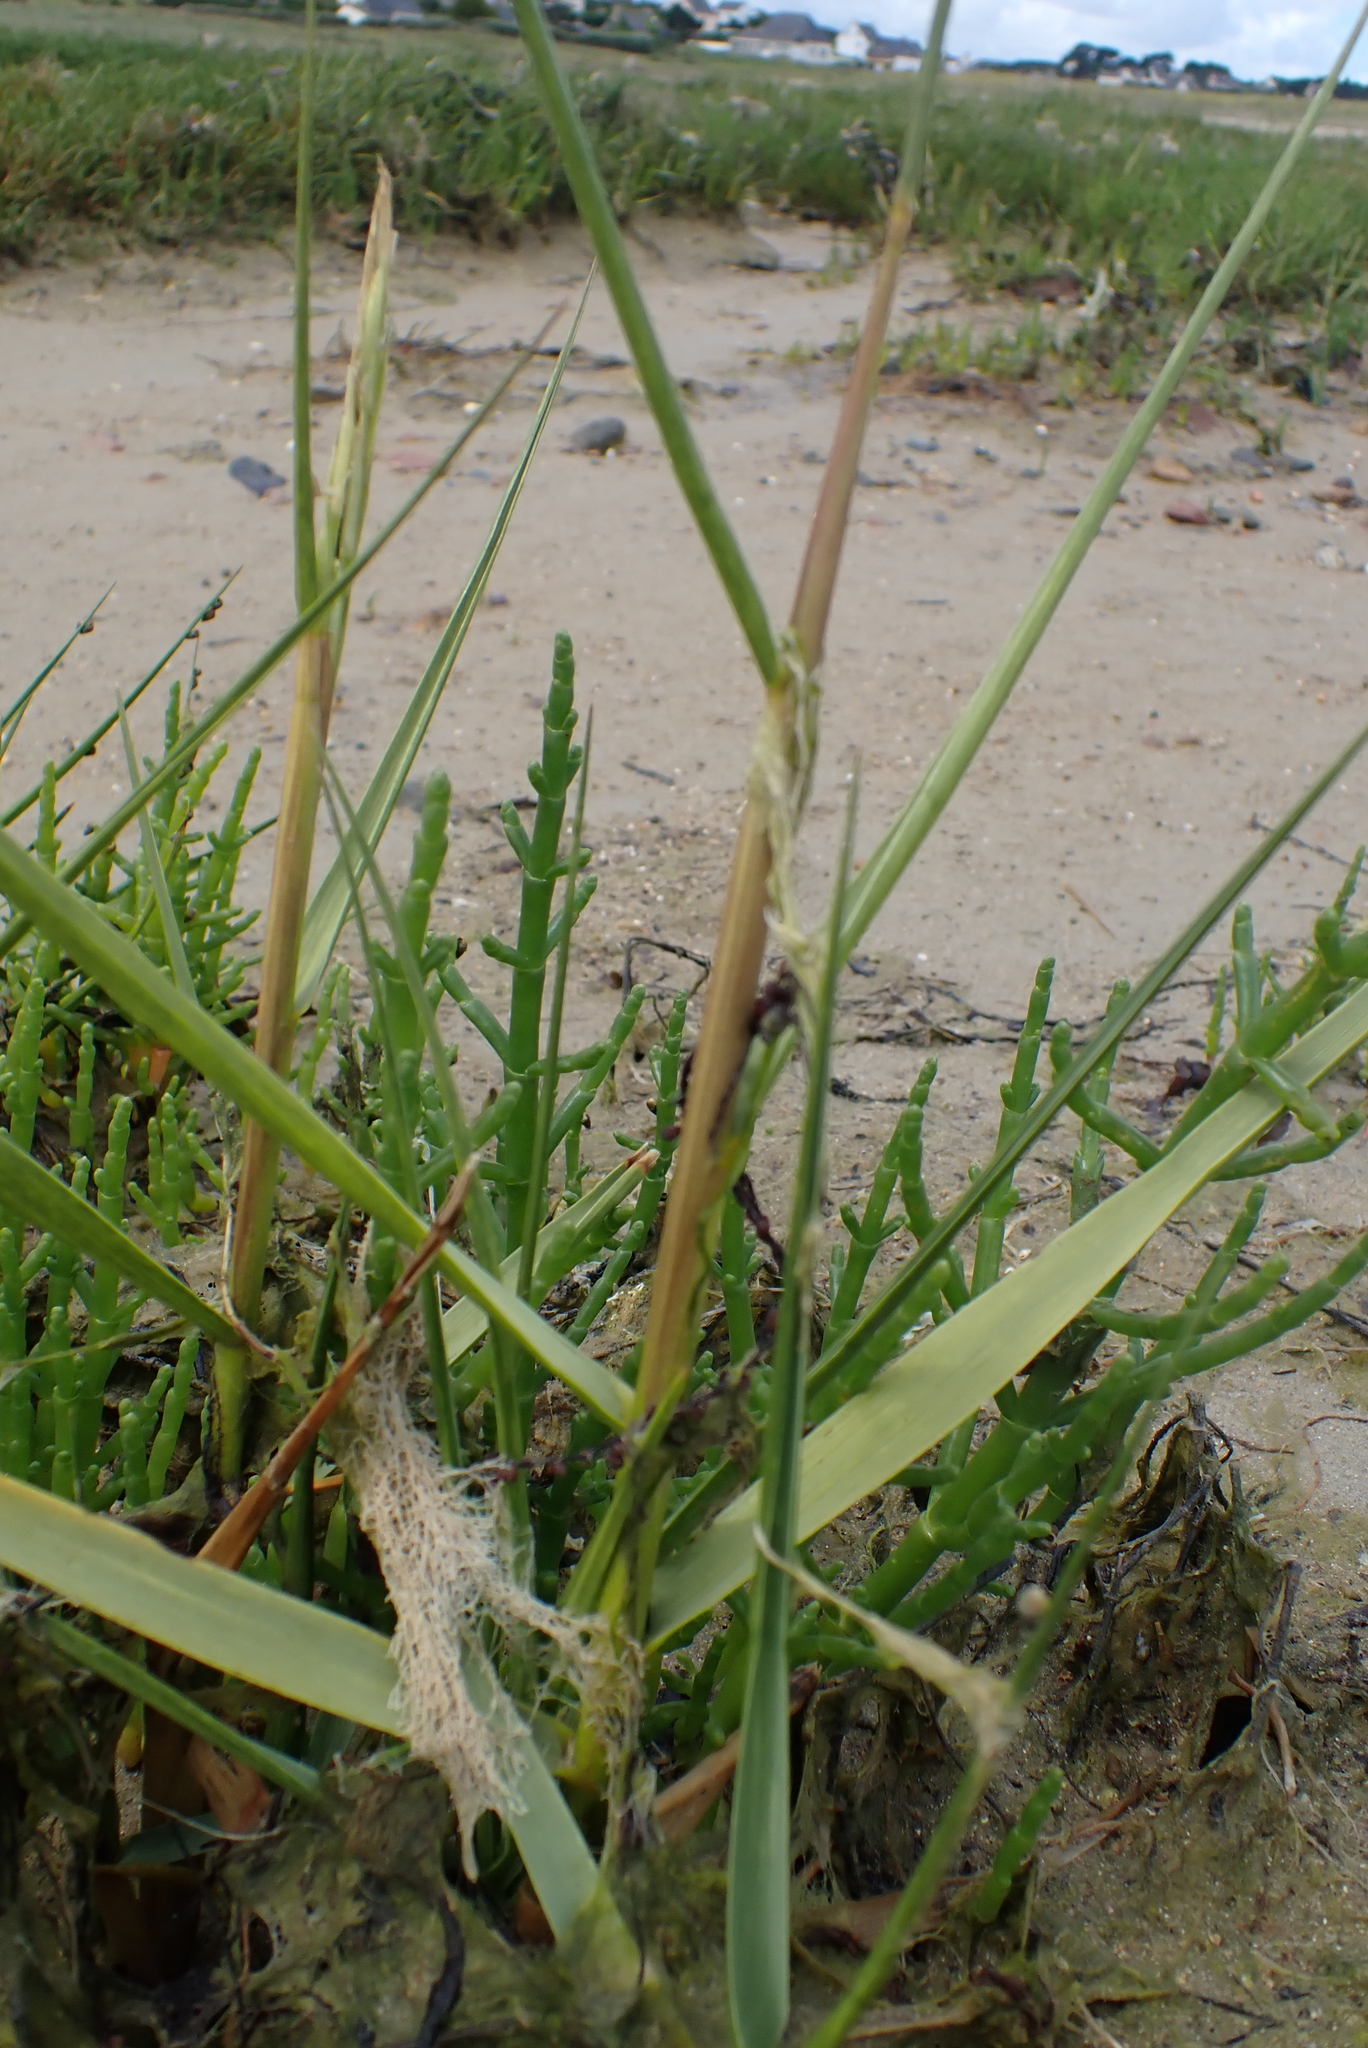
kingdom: Plantae
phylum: Tracheophyta
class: Liliopsida
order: Poales
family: Poaceae
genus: Sporobolus
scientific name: Sporobolus anglicus
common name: English cordgrass
